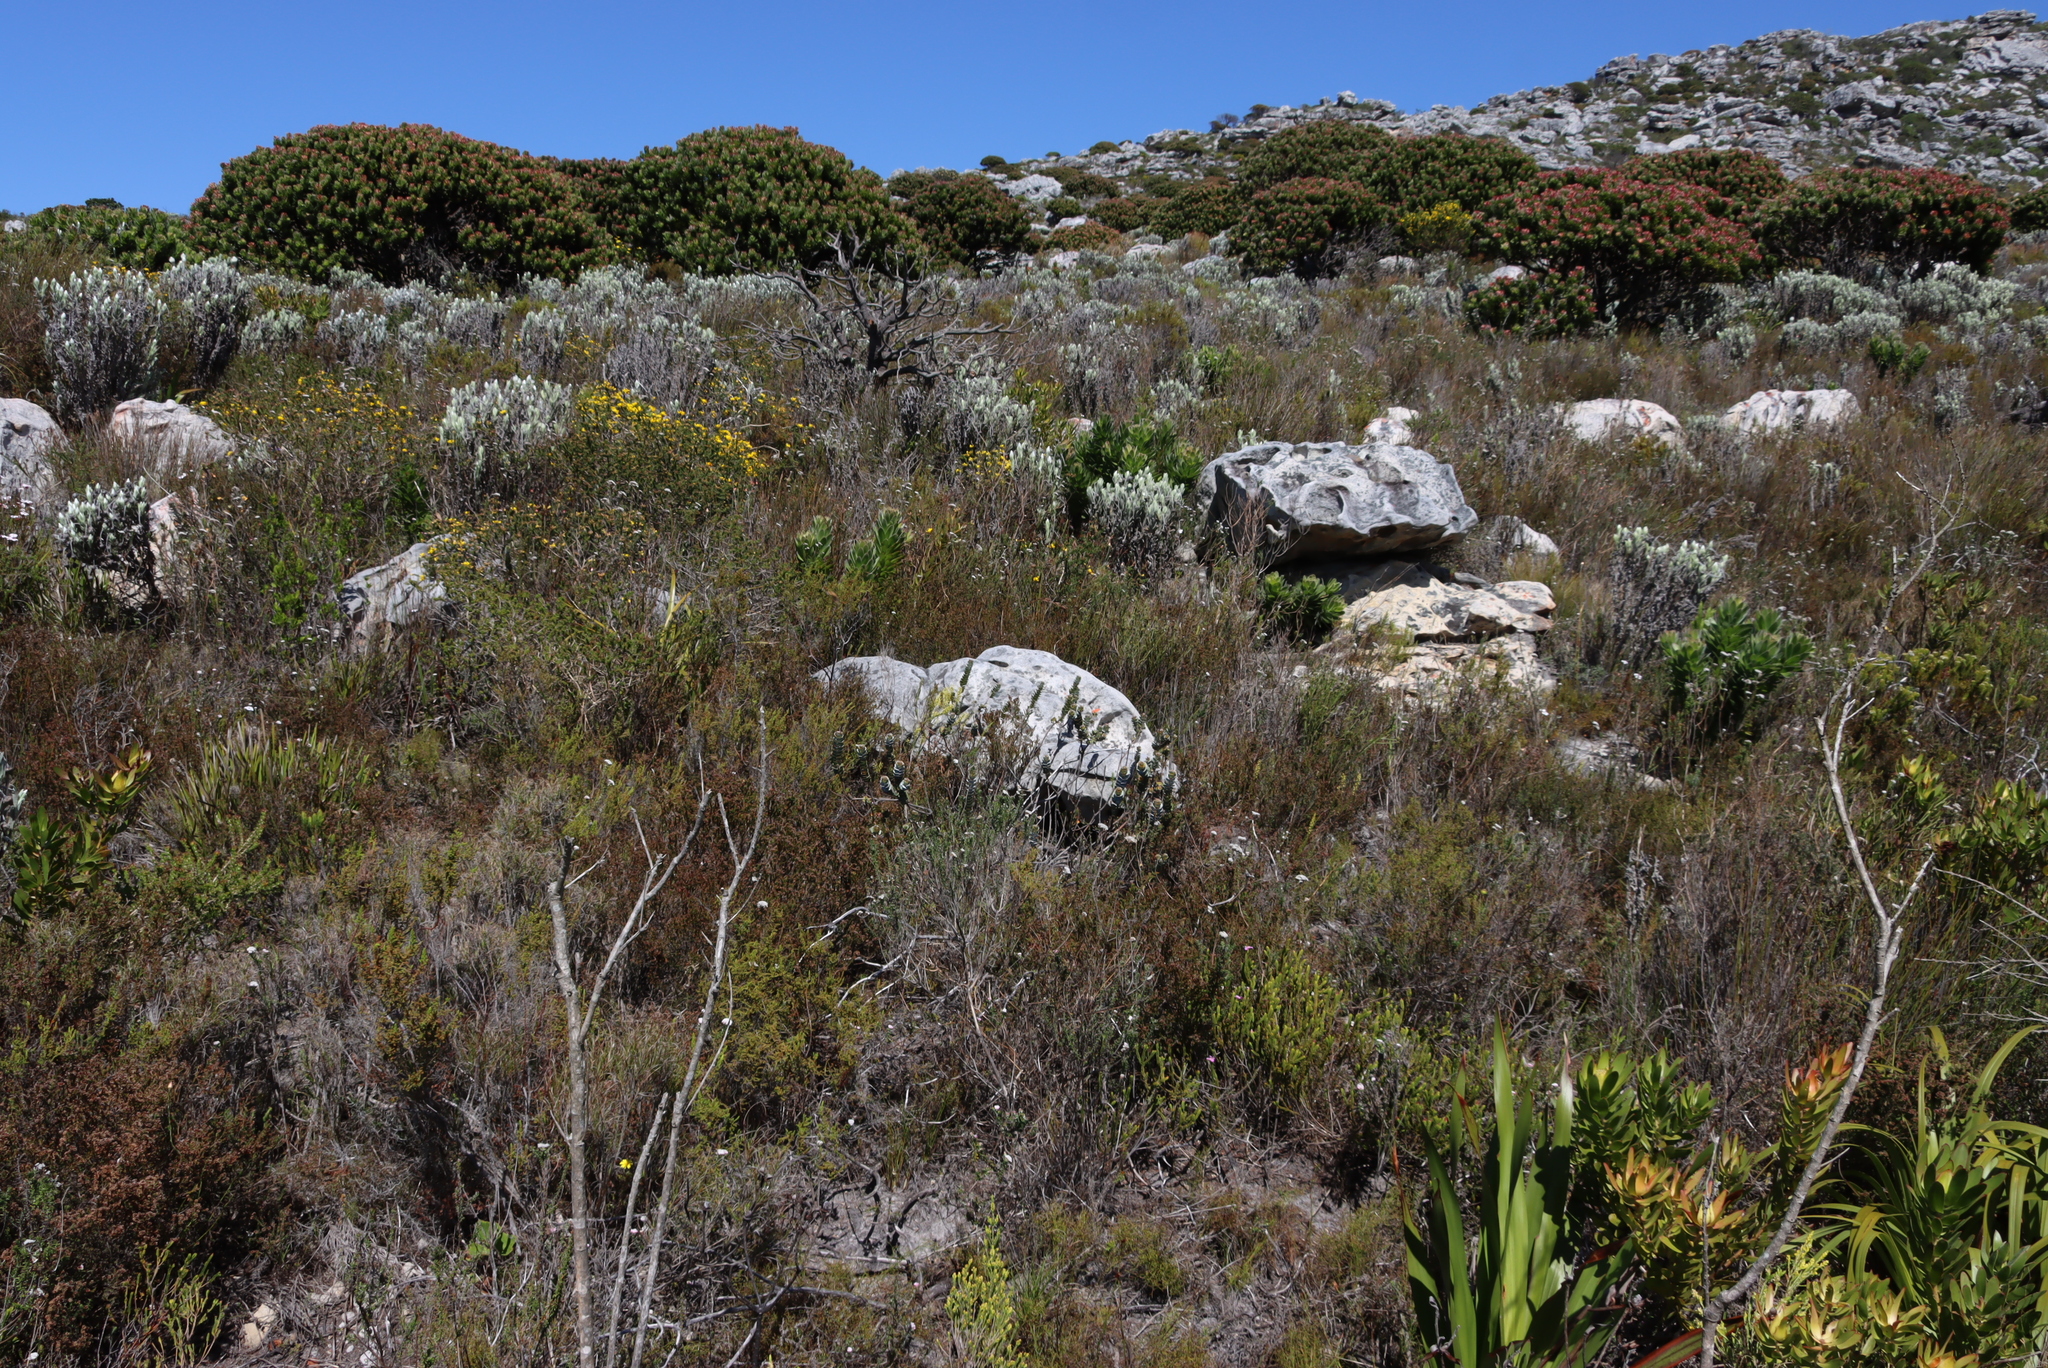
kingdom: Plantae
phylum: Tracheophyta
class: Magnoliopsida
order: Asterales
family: Asteraceae
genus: Syncarpha
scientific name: Syncarpha vestita
